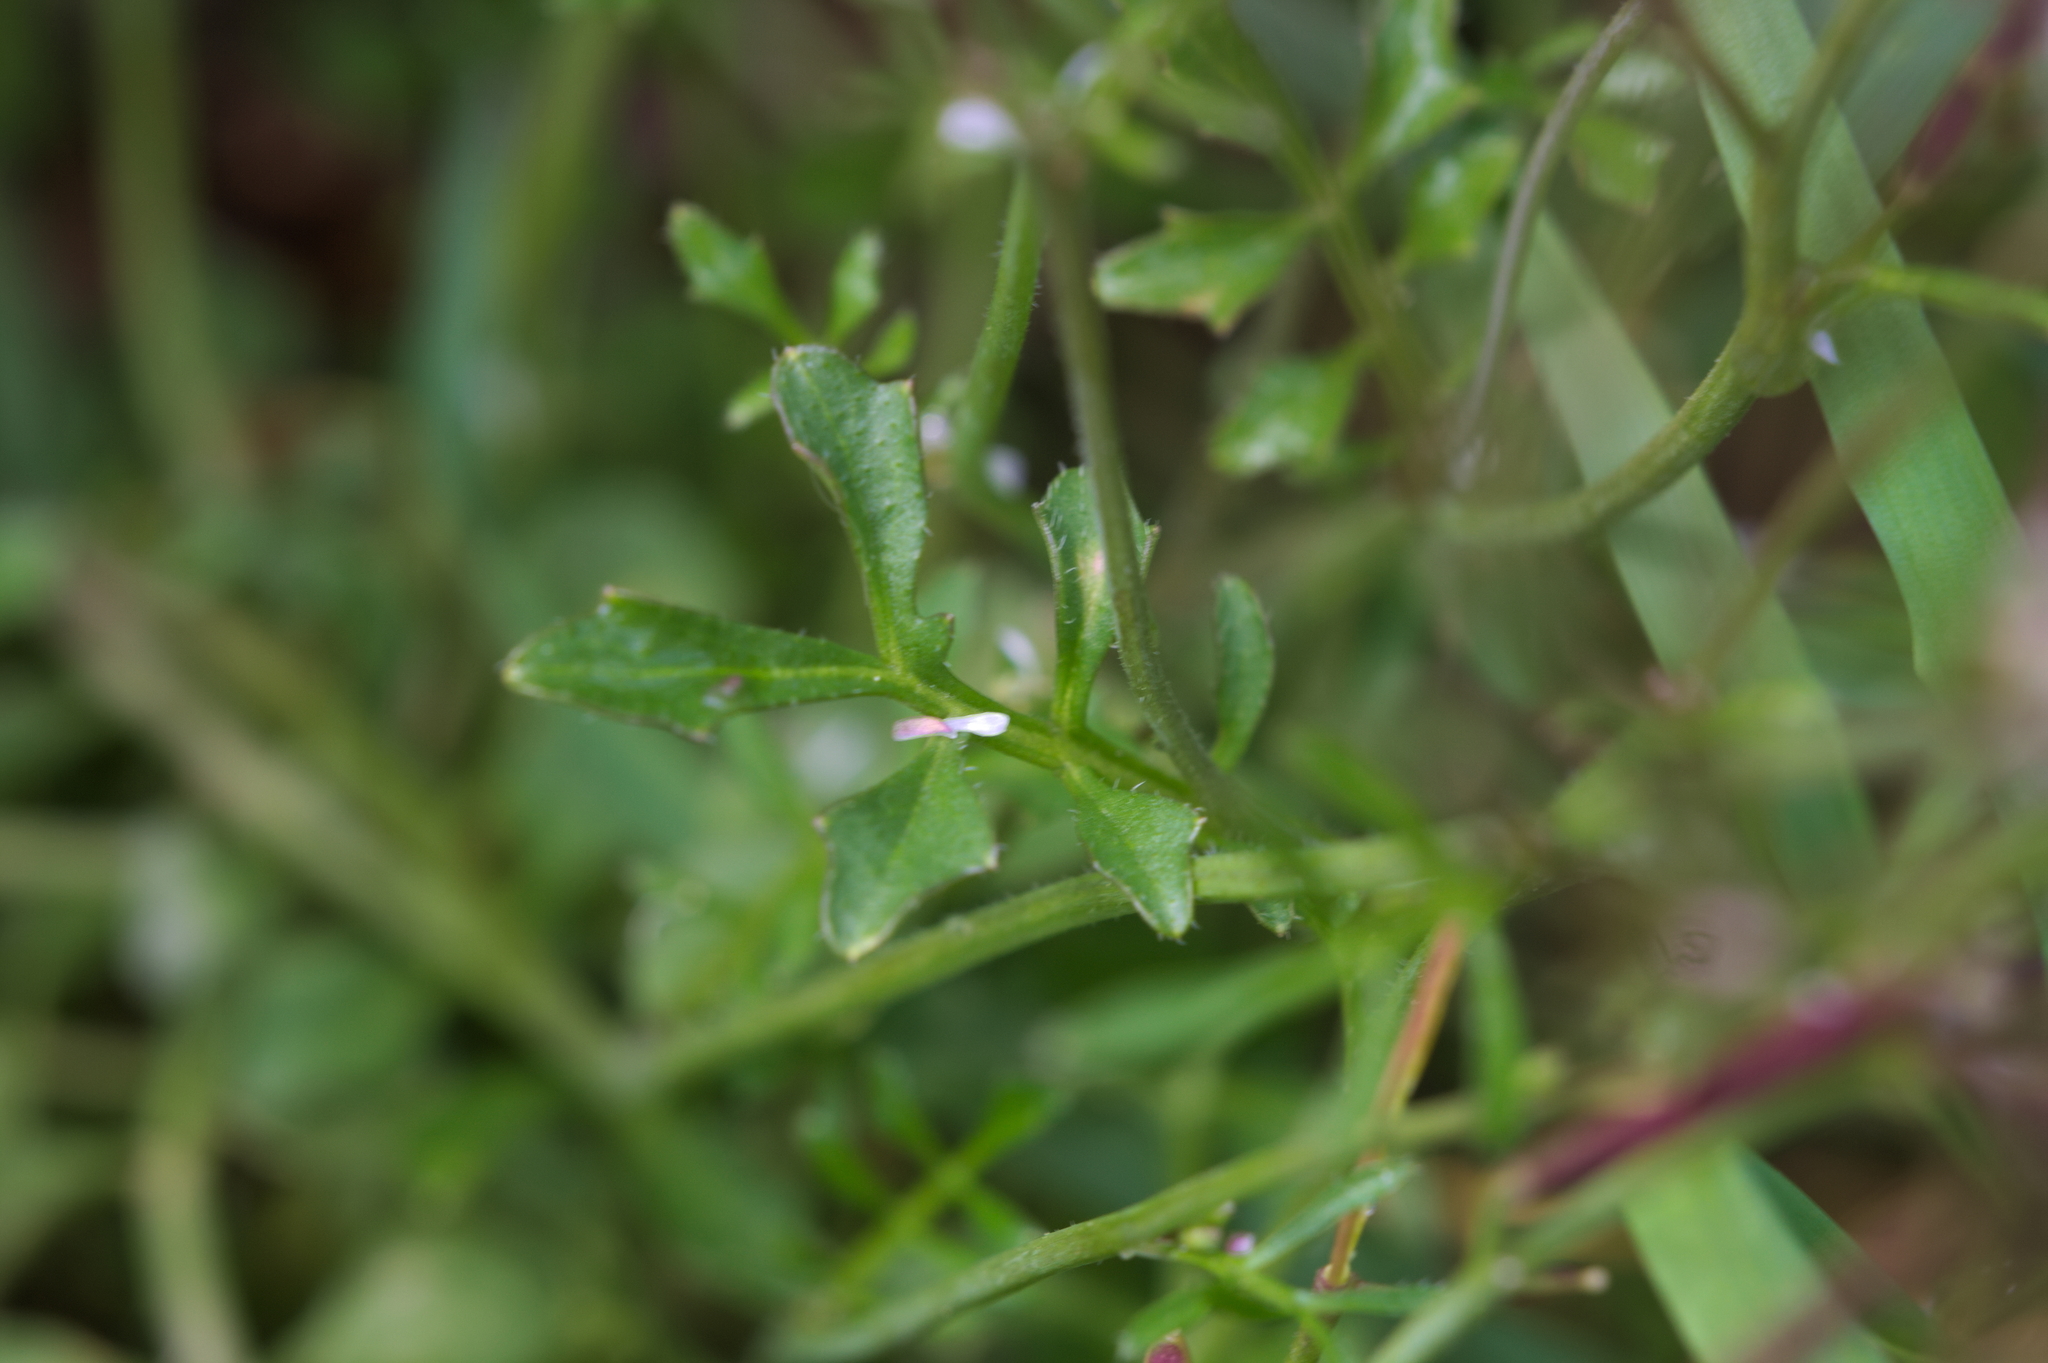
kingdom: Plantae
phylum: Tracheophyta
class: Magnoliopsida
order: Brassicales
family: Brassicaceae
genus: Cardamine
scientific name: Cardamine hirsuta
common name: Hairy bittercress
